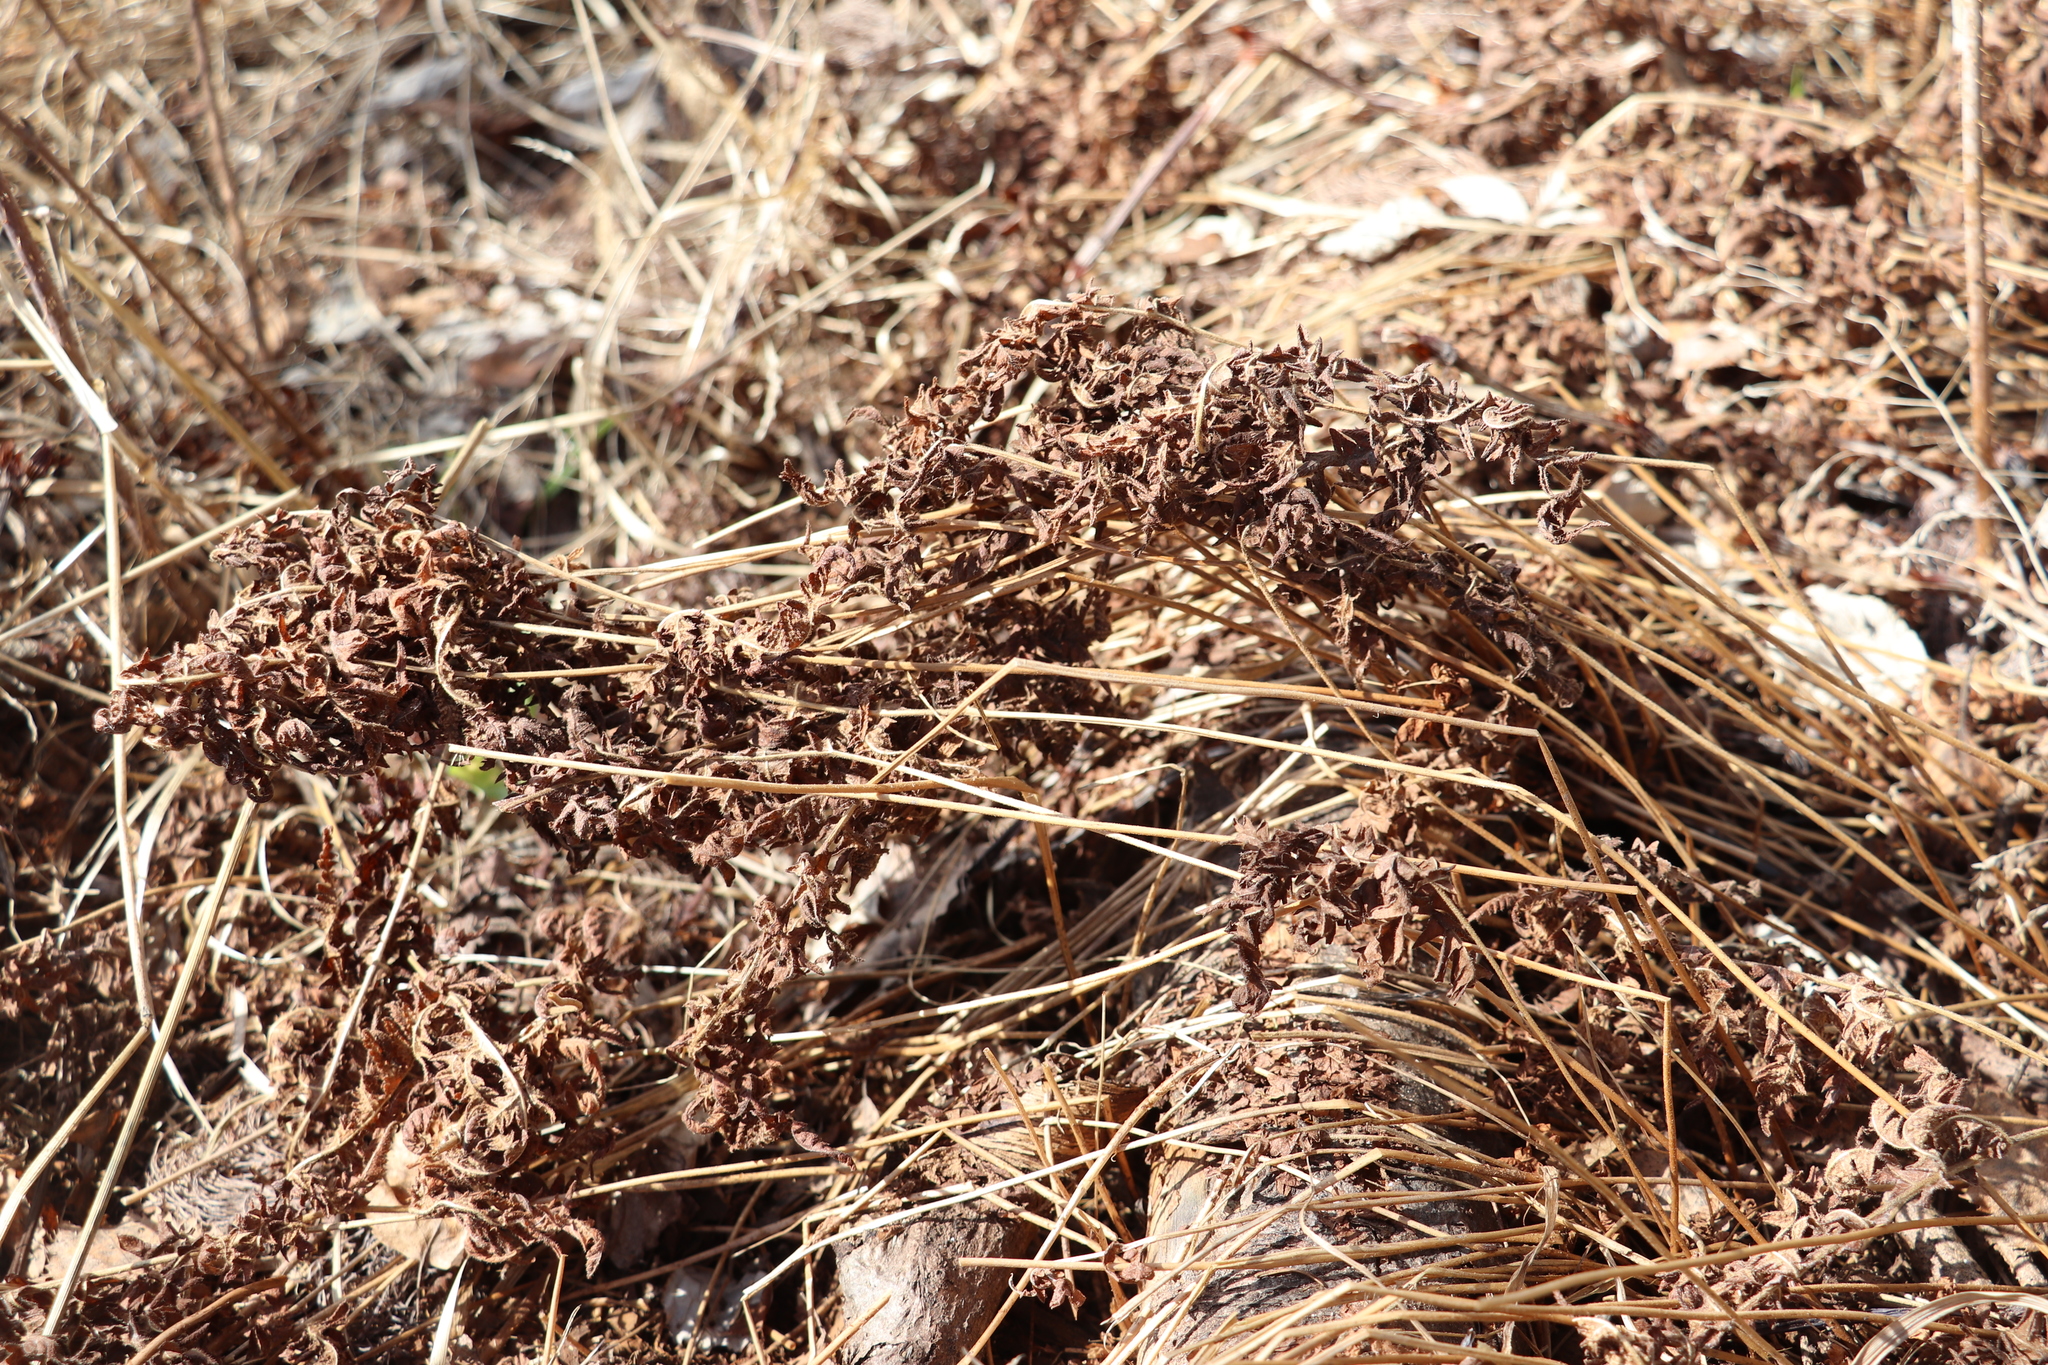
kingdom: Plantae
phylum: Tracheophyta
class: Polypodiopsida
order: Polypodiales
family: Thelypteridaceae
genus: Thelypteris
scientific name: Thelypteris palustris
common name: Marsh fern
